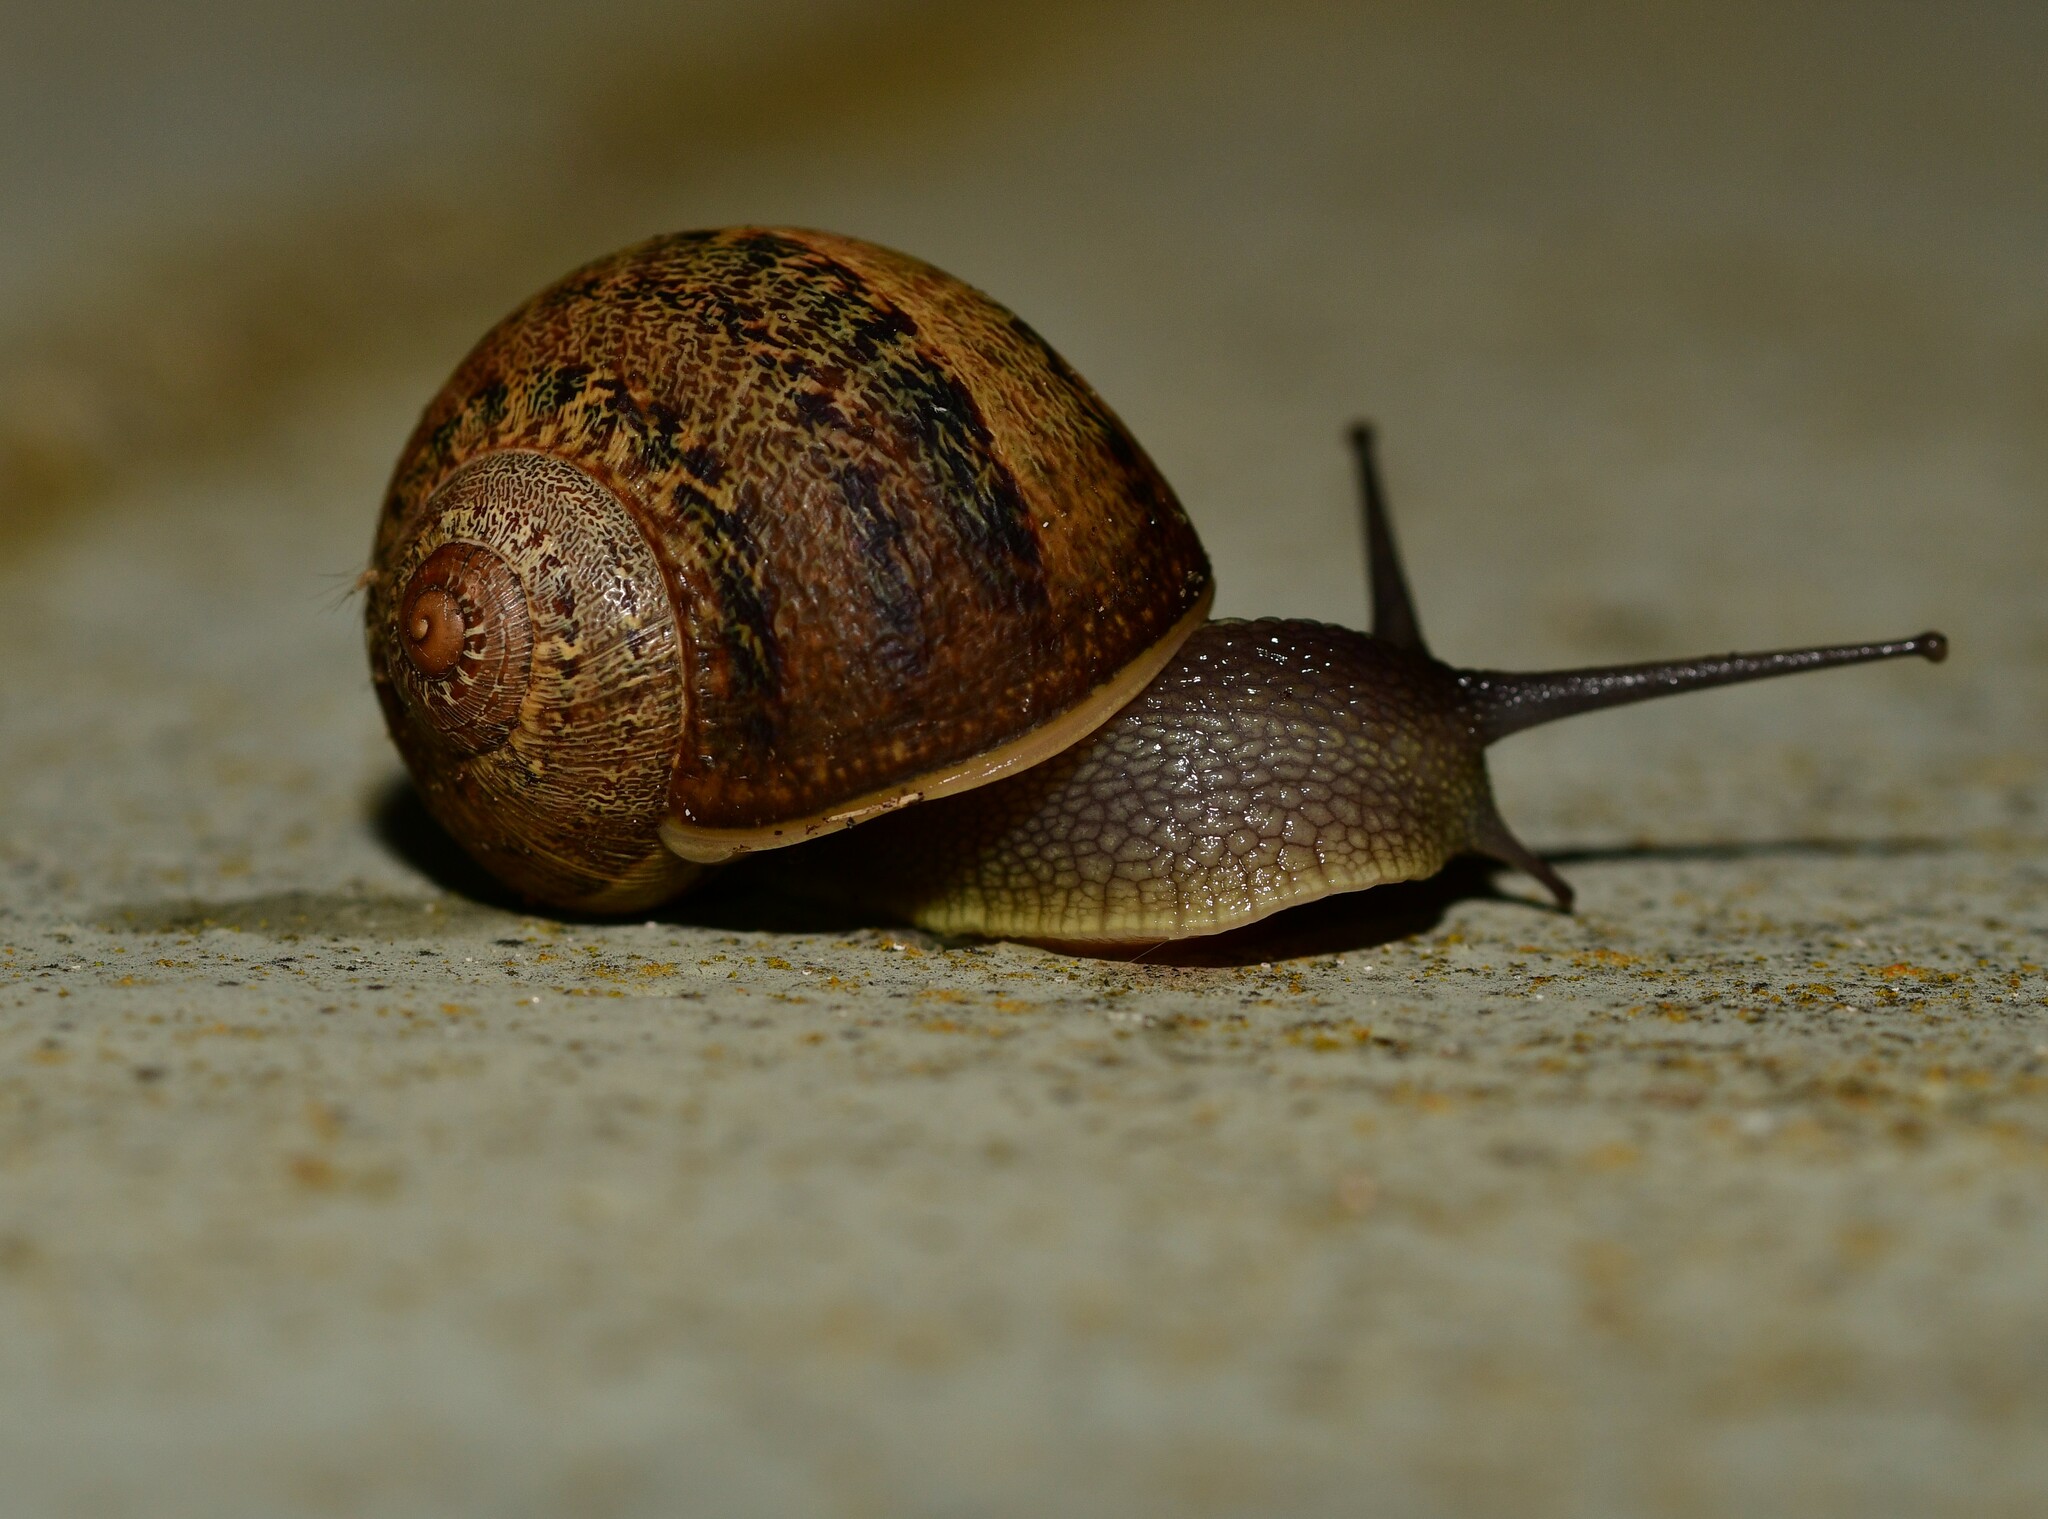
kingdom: Animalia
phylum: Mollusca
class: Gastropoda
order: Stylommatophora
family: Helicidae
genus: Cornu
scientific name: Cornu aspersum
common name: Brown garden snail
